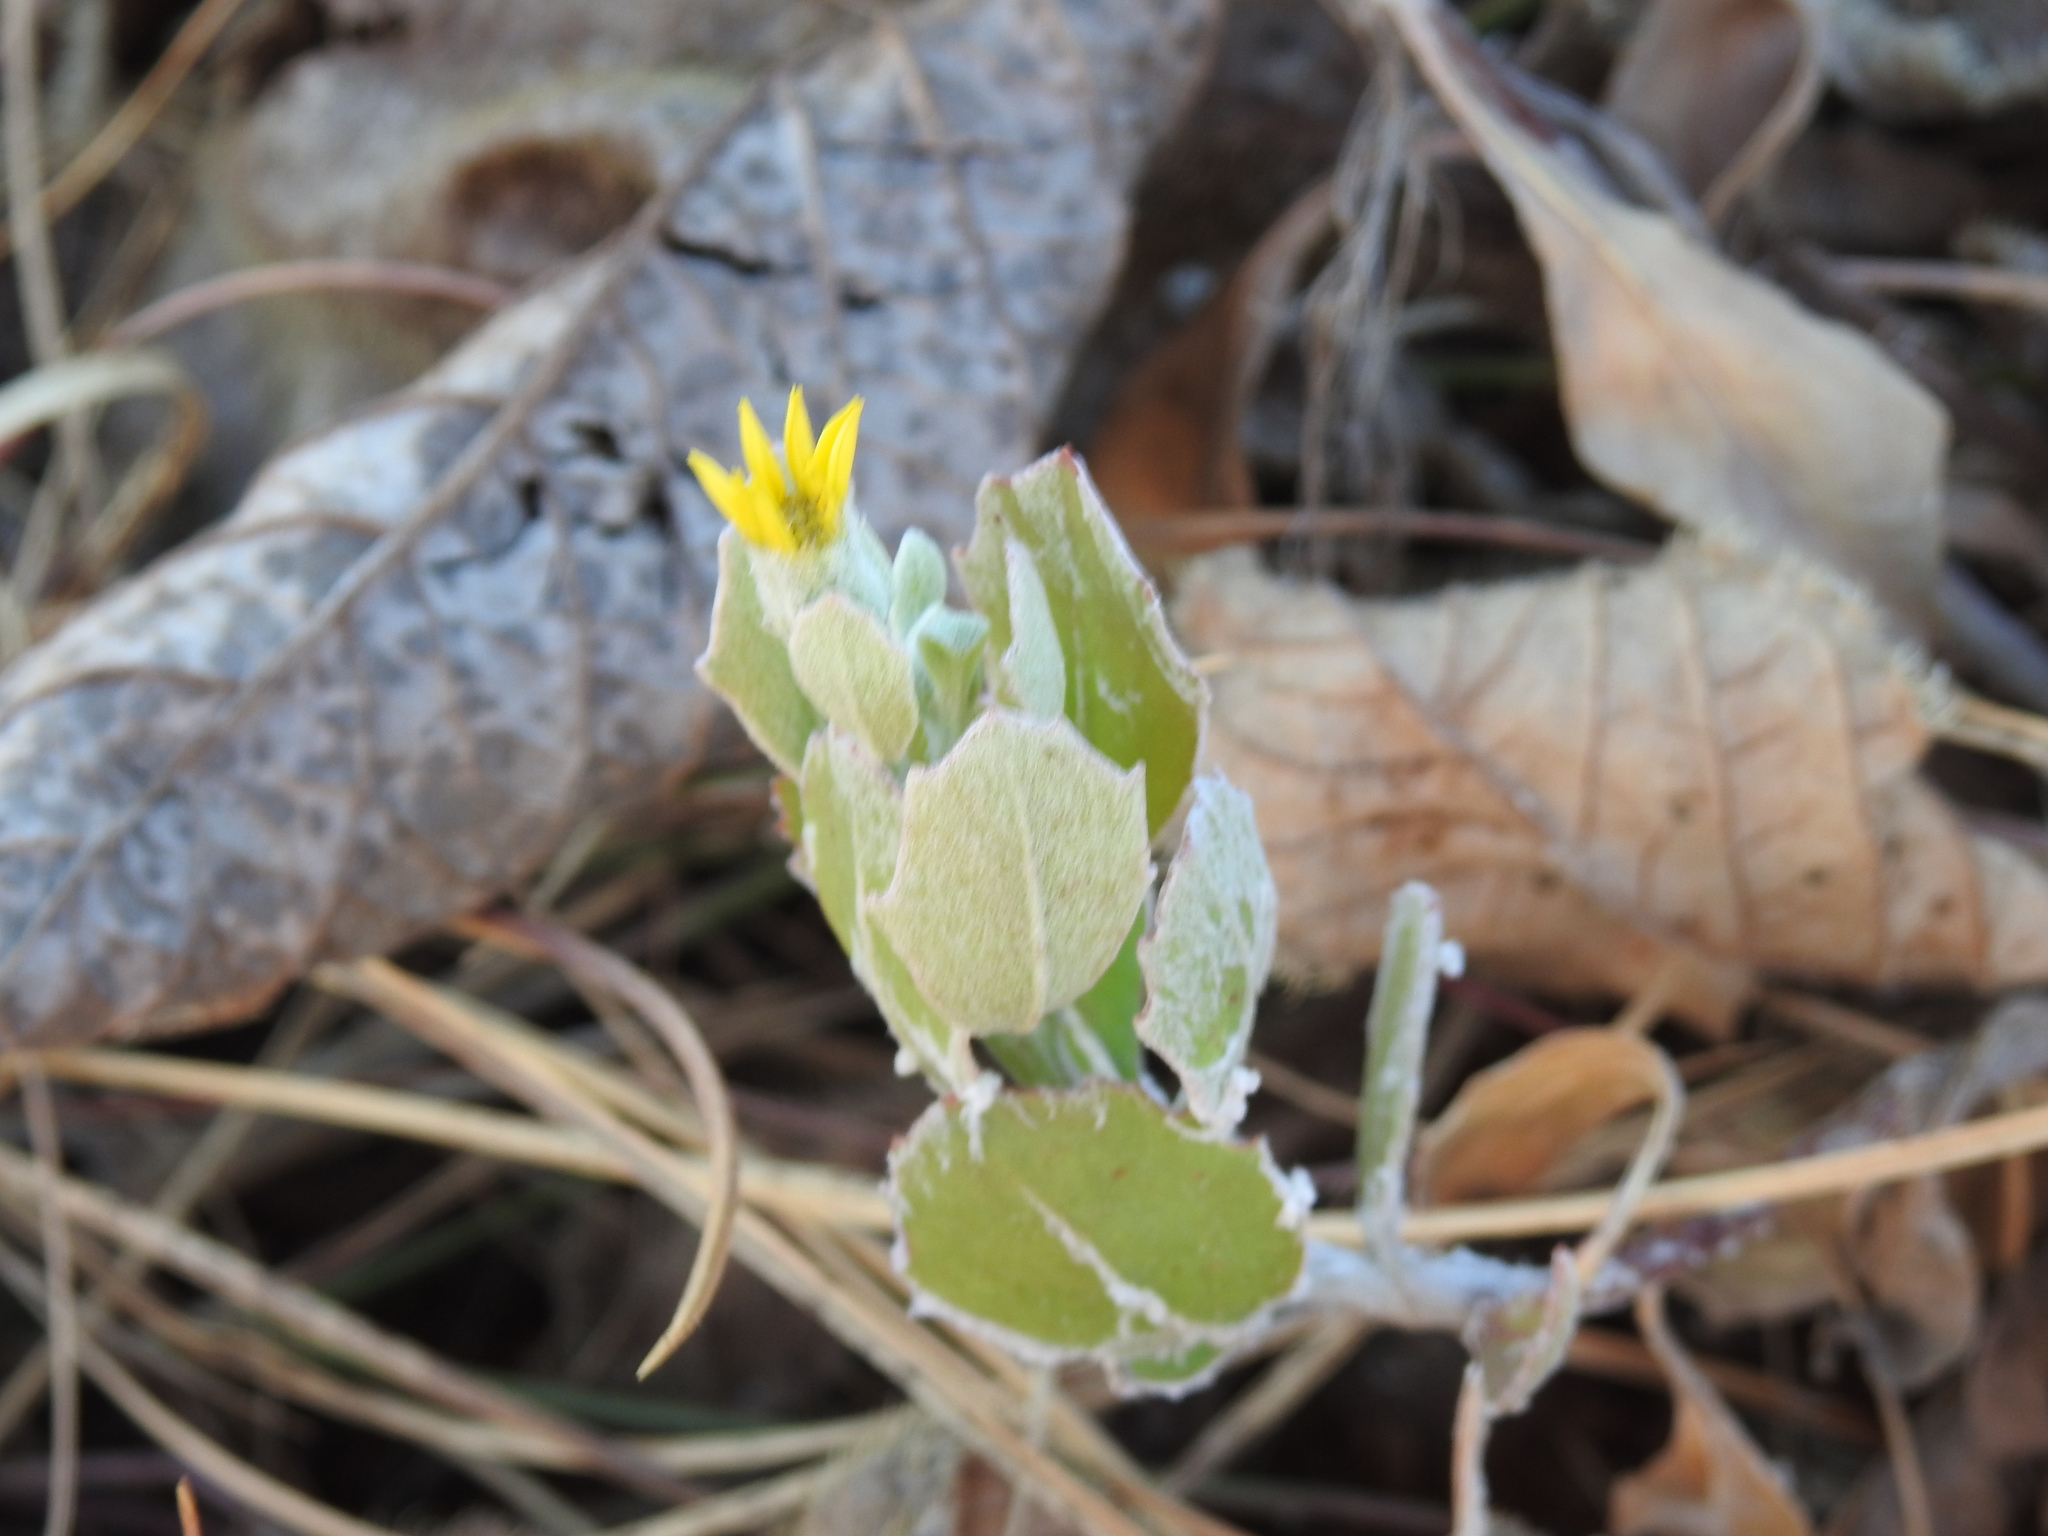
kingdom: Plantae
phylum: Tracheophyta
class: Magnoliopsida
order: Asterales
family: Asteraceae
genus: Osteospermum
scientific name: Osteospermum moniliferum
